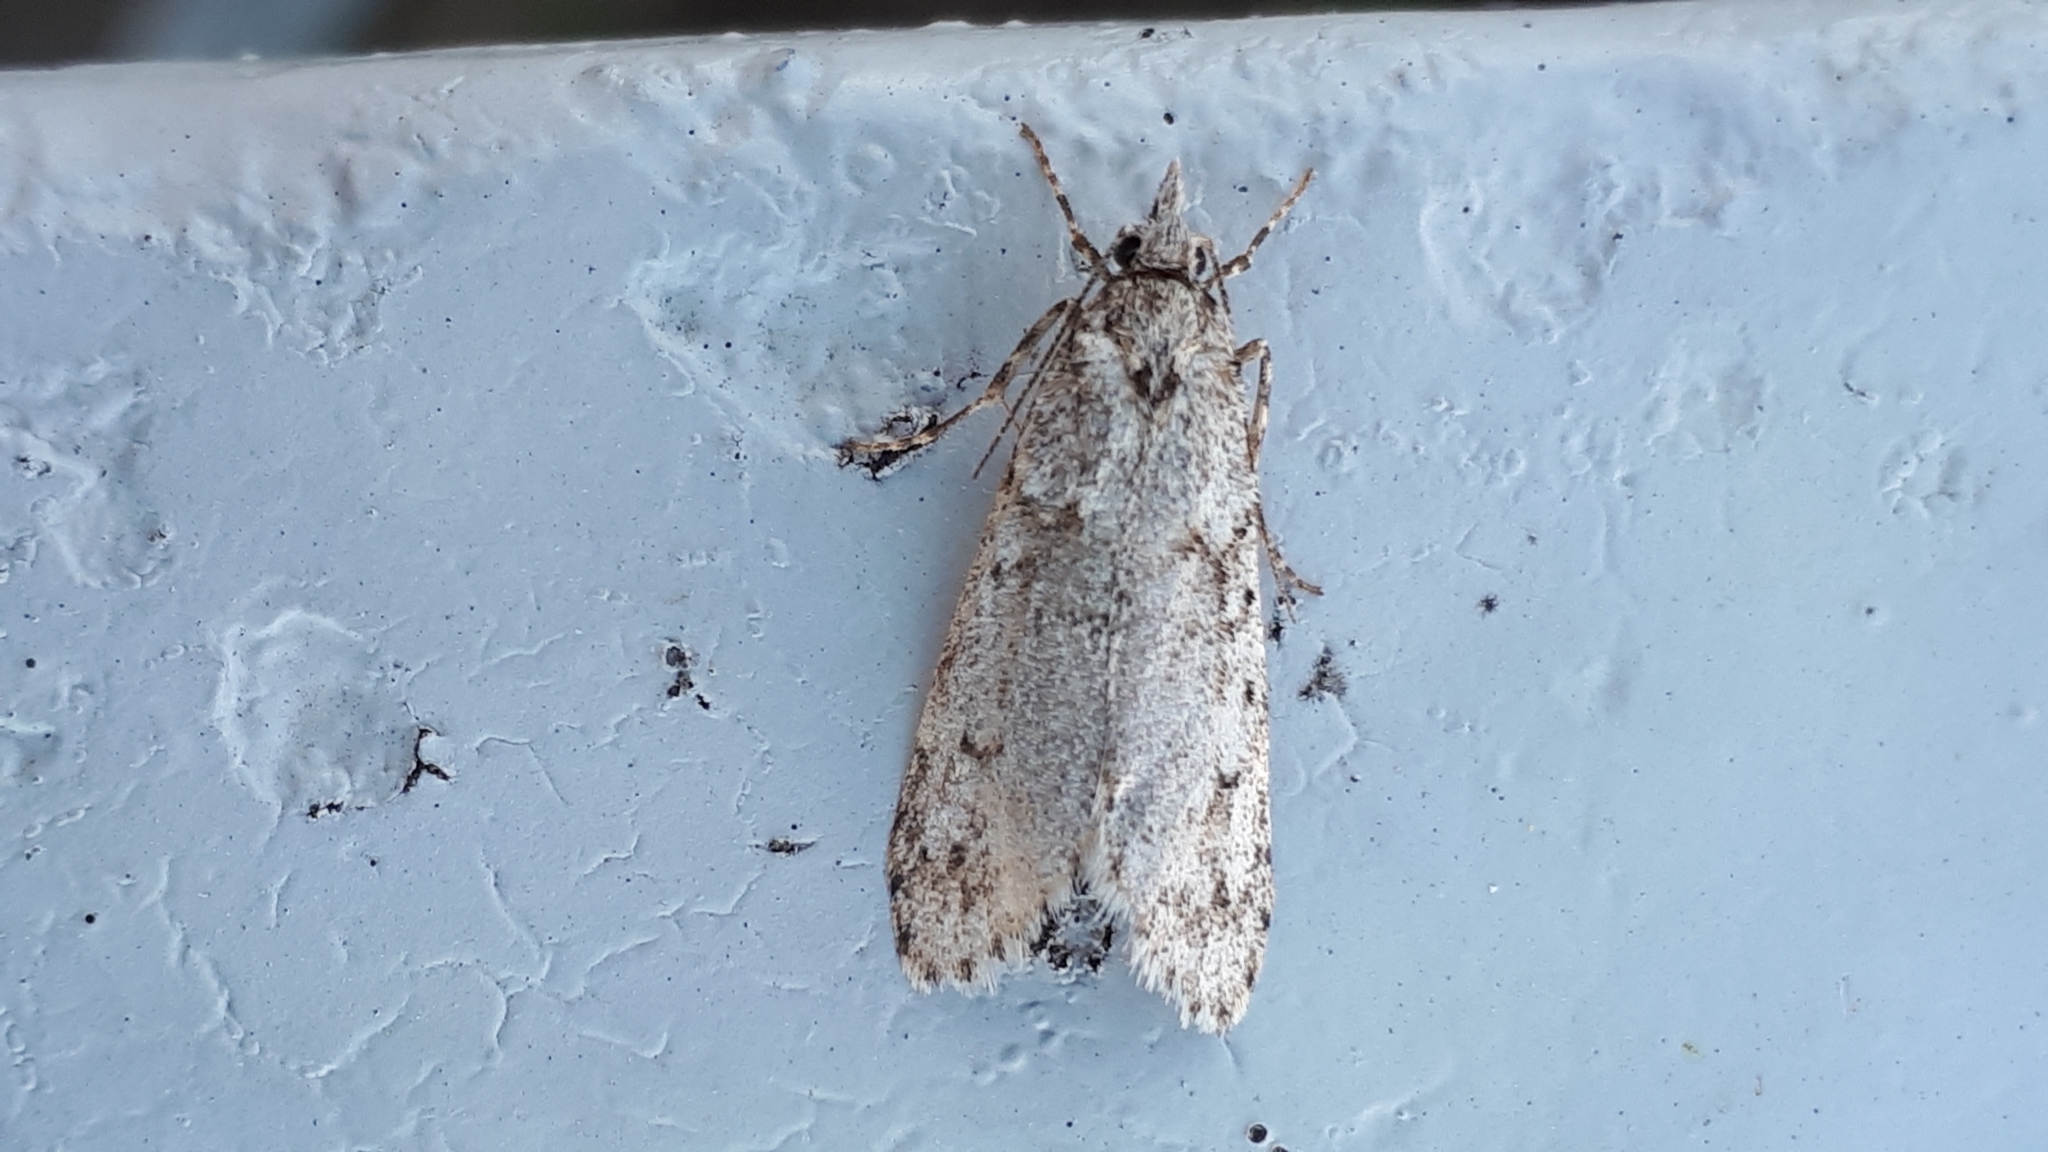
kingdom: Animalia
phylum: Arthropoda
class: Insecta
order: Lepidoptera
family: Lypusidae
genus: Diurnea
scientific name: Diurnea fagella
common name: March tubic
